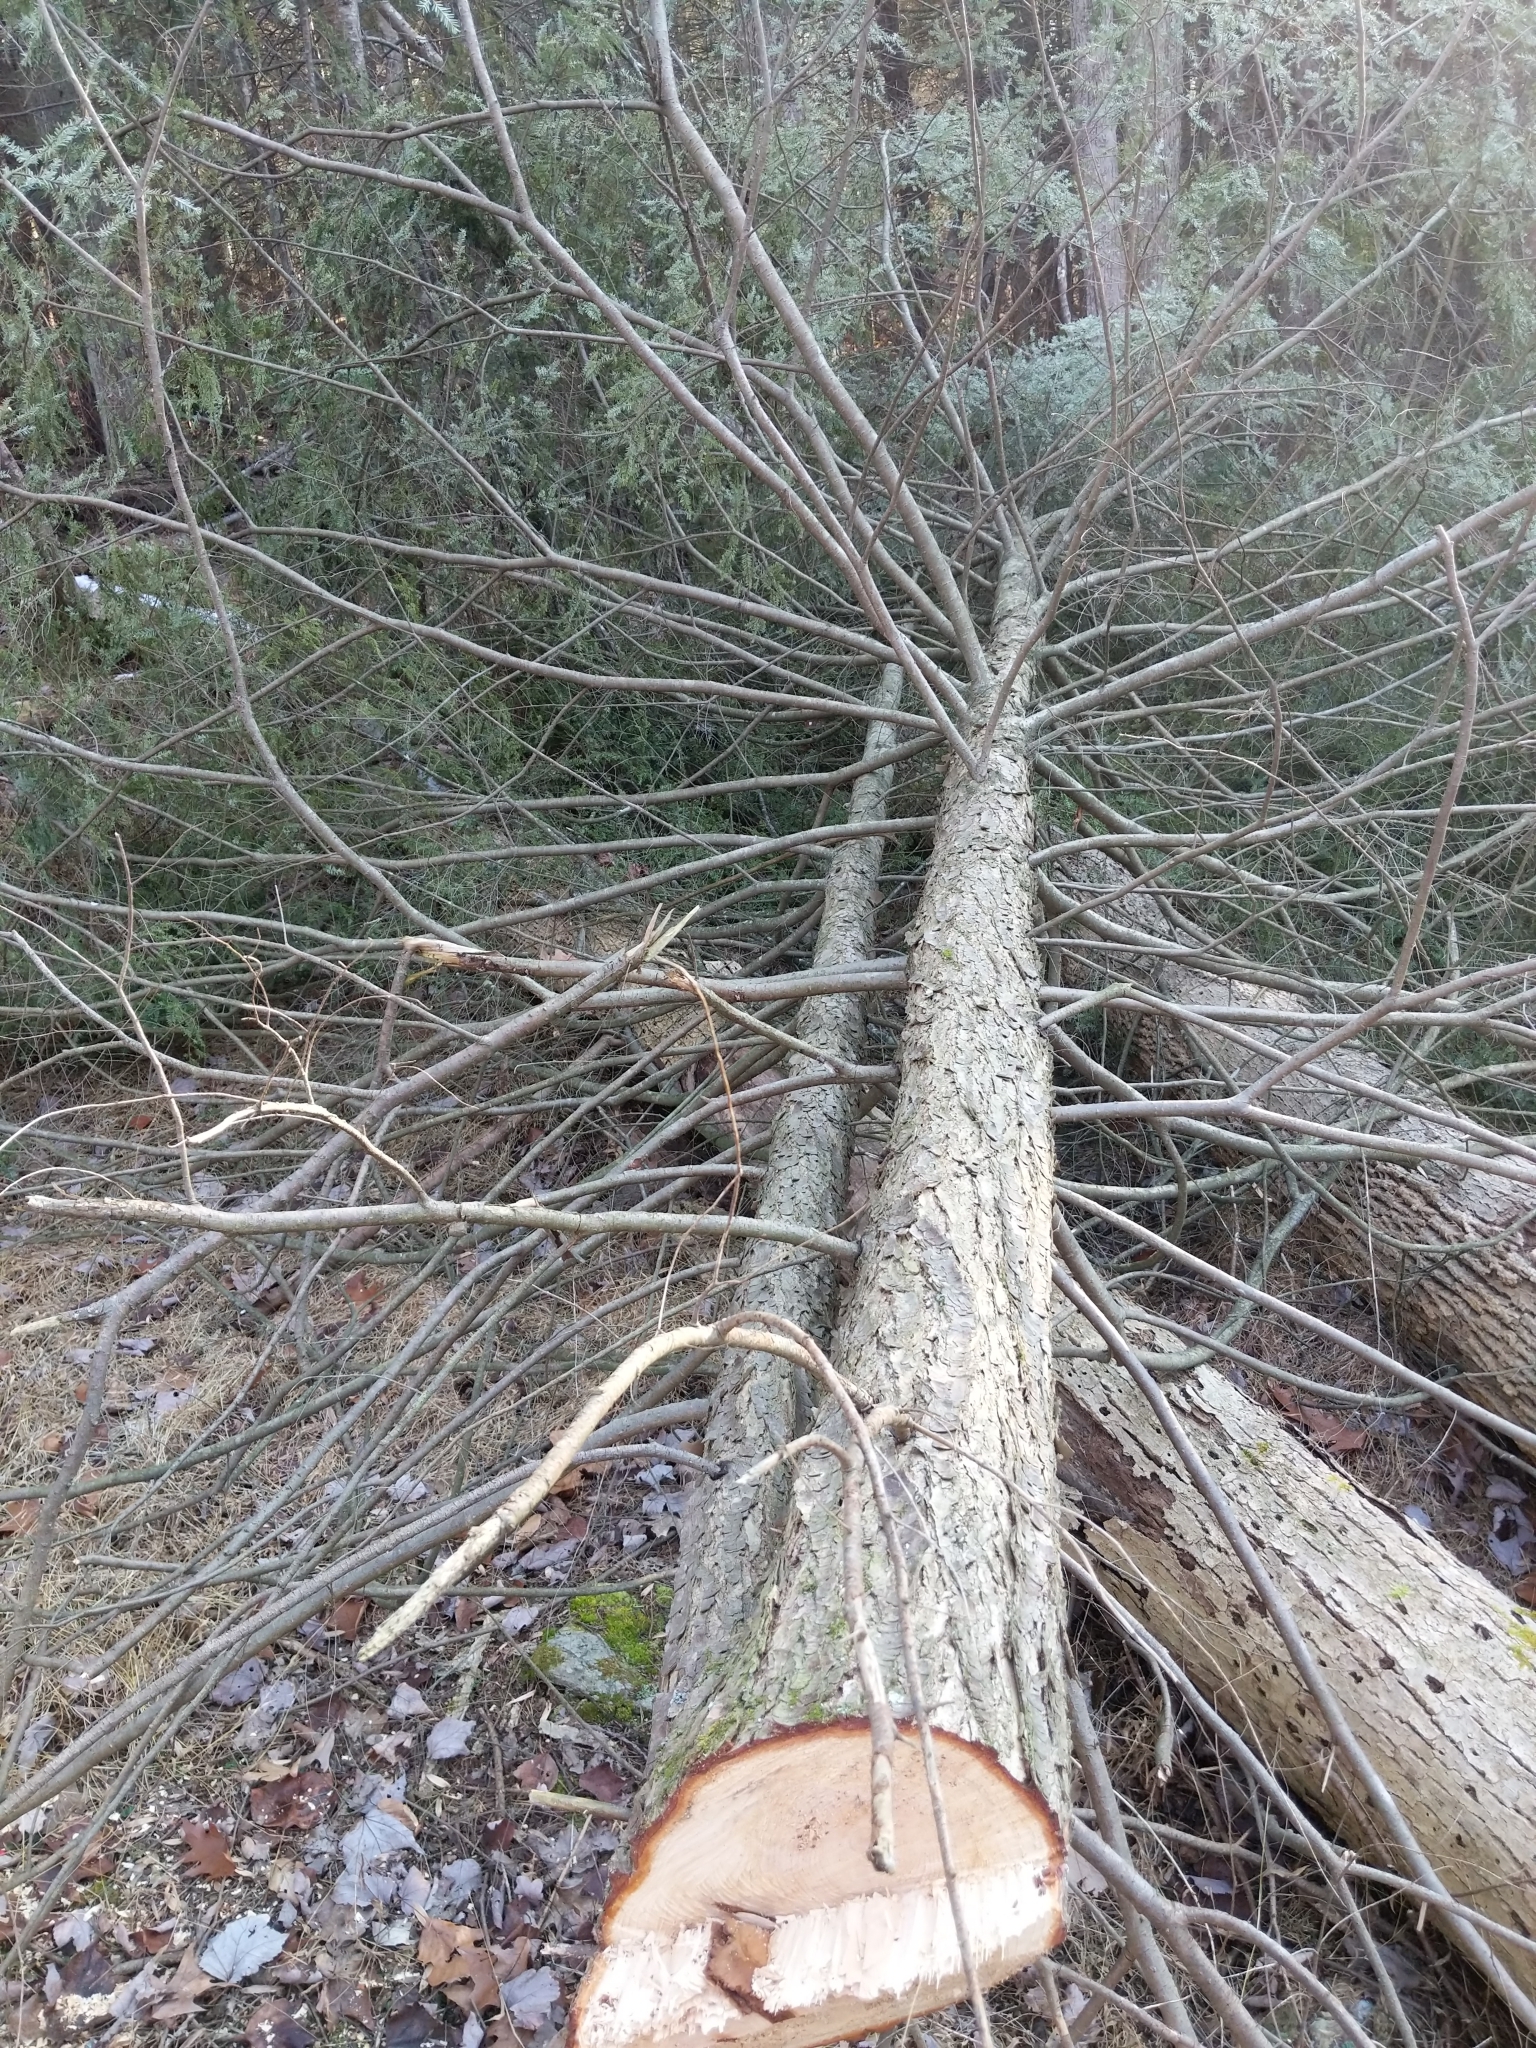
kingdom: Plantae
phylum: Tracheophyta
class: Pinopsida
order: Pinales
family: Pinaceae
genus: Tsuga
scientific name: Tsuga canadensis
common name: Eastern hemlock
